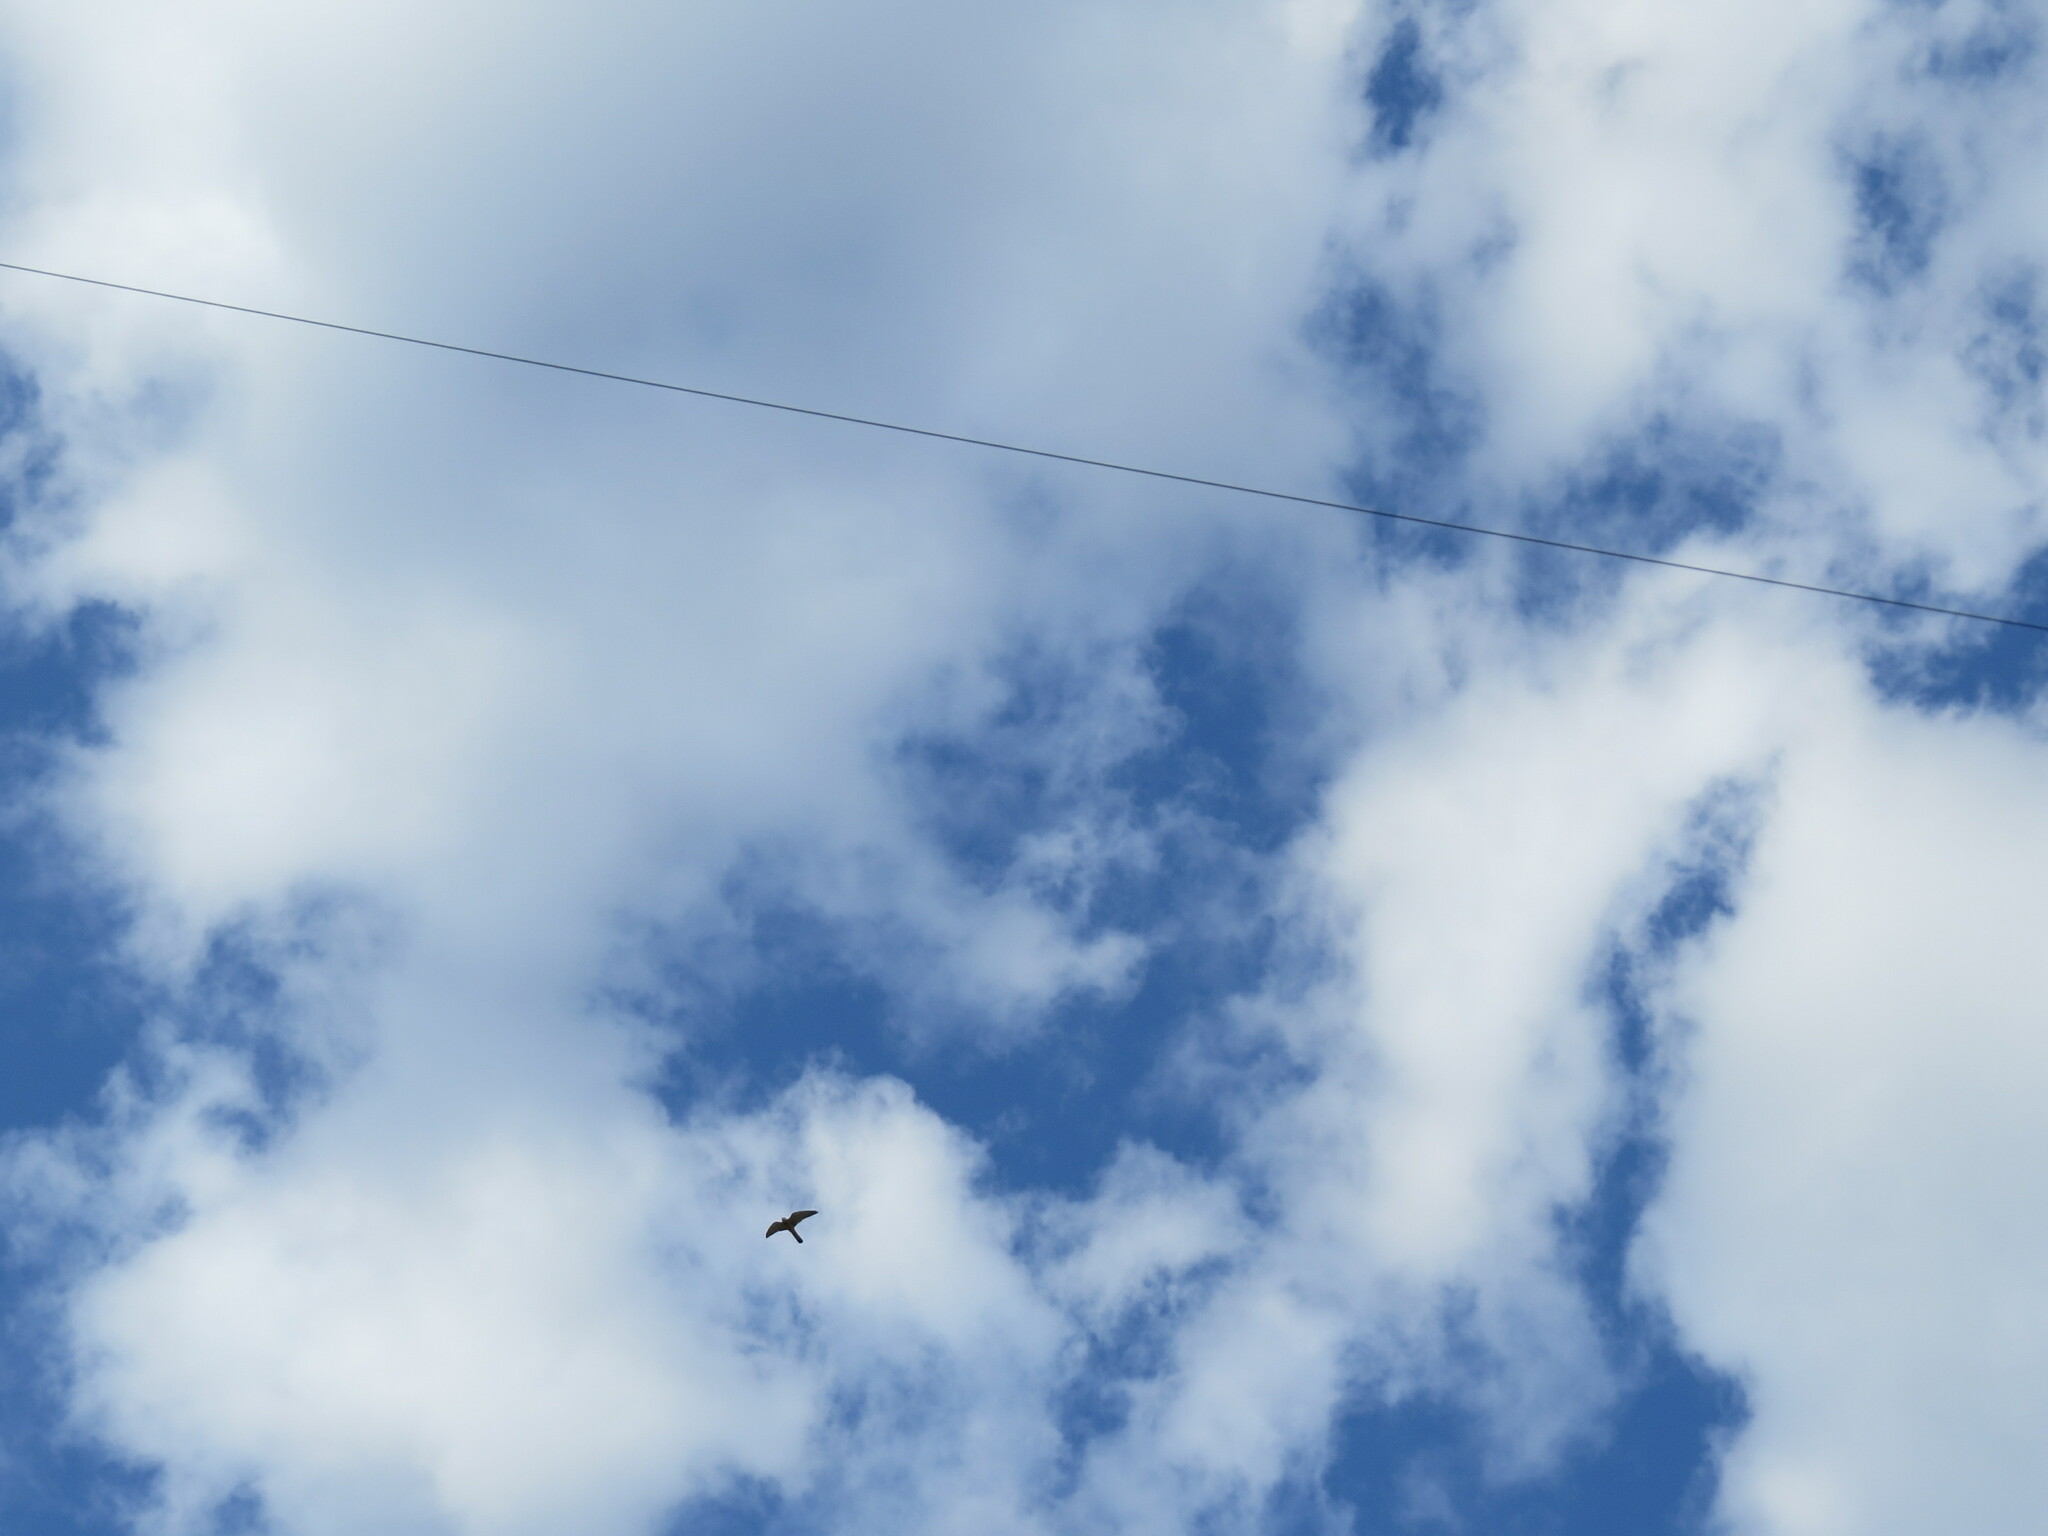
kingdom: Animalia
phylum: Chordata
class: Aves
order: Falconiformes
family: Falconidae
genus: Falco
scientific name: Falco tinnunculus
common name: Common kestrel
